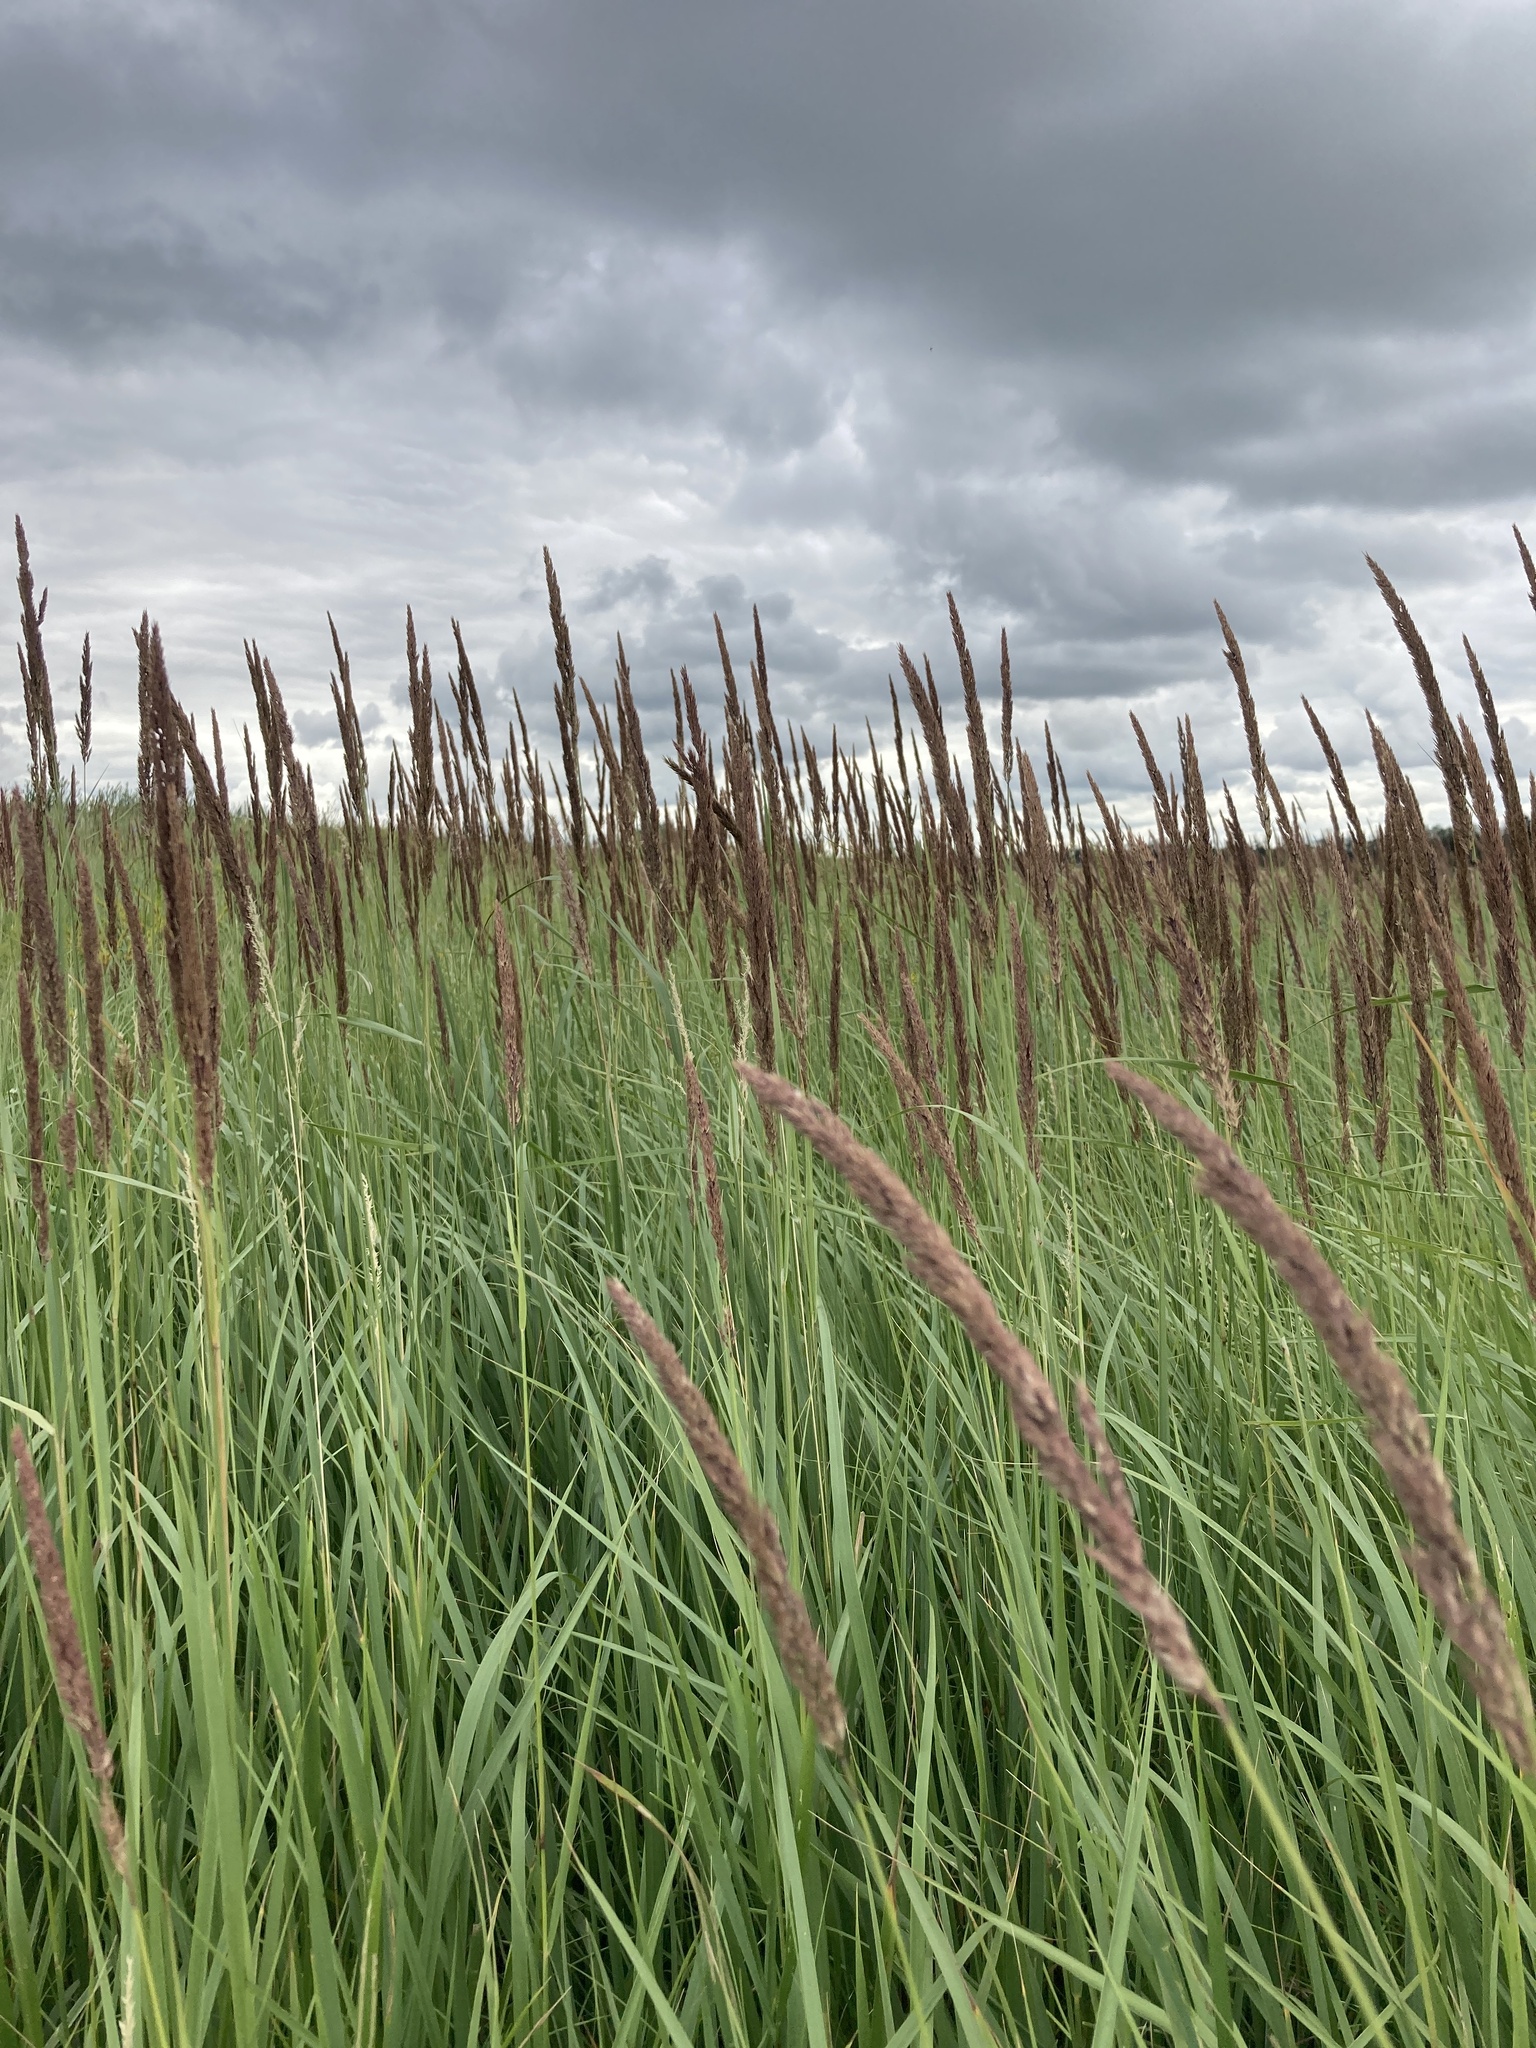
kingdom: Plantae
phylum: Tracheophyta
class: Liliopsida
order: Poales
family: Poaceae
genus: Calamagrostis
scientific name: Calamagrostis epigejos
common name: Wood small-reed
